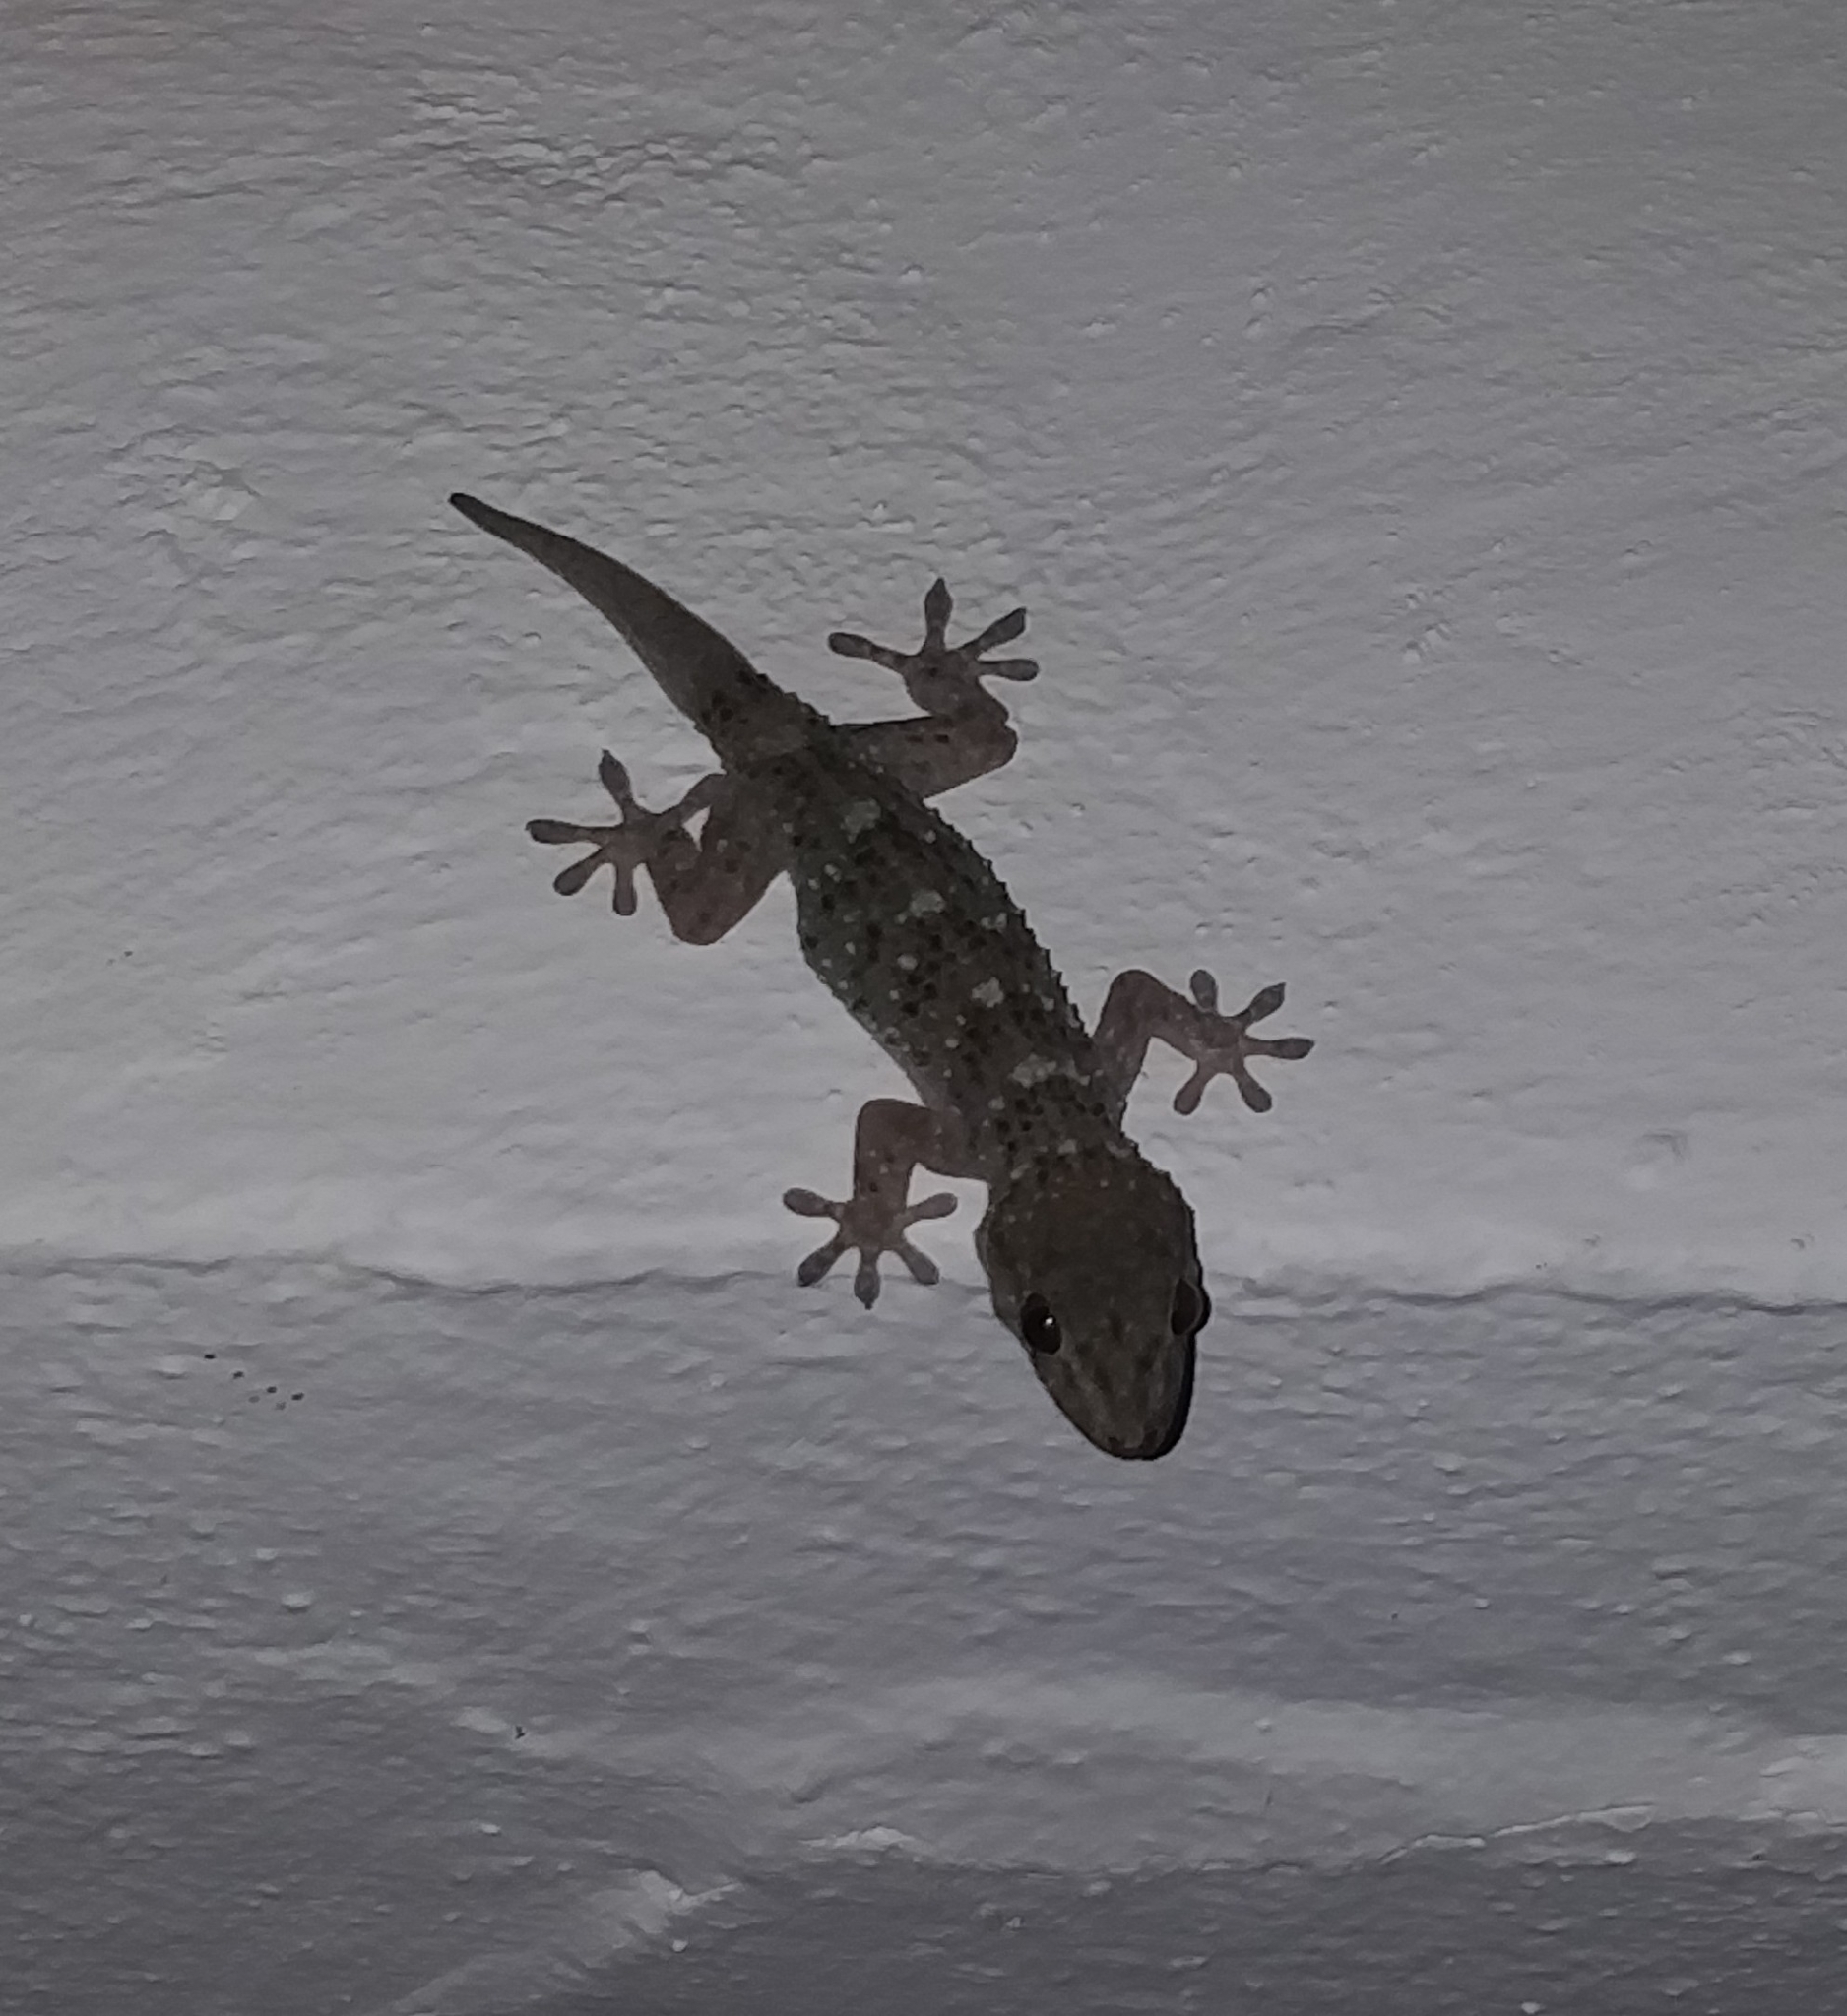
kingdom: Animalia
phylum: Chordata
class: Squamata
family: Phyllodactylidae
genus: Tarentola
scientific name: Tarentola gomerensis
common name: Gomero wall gecko
